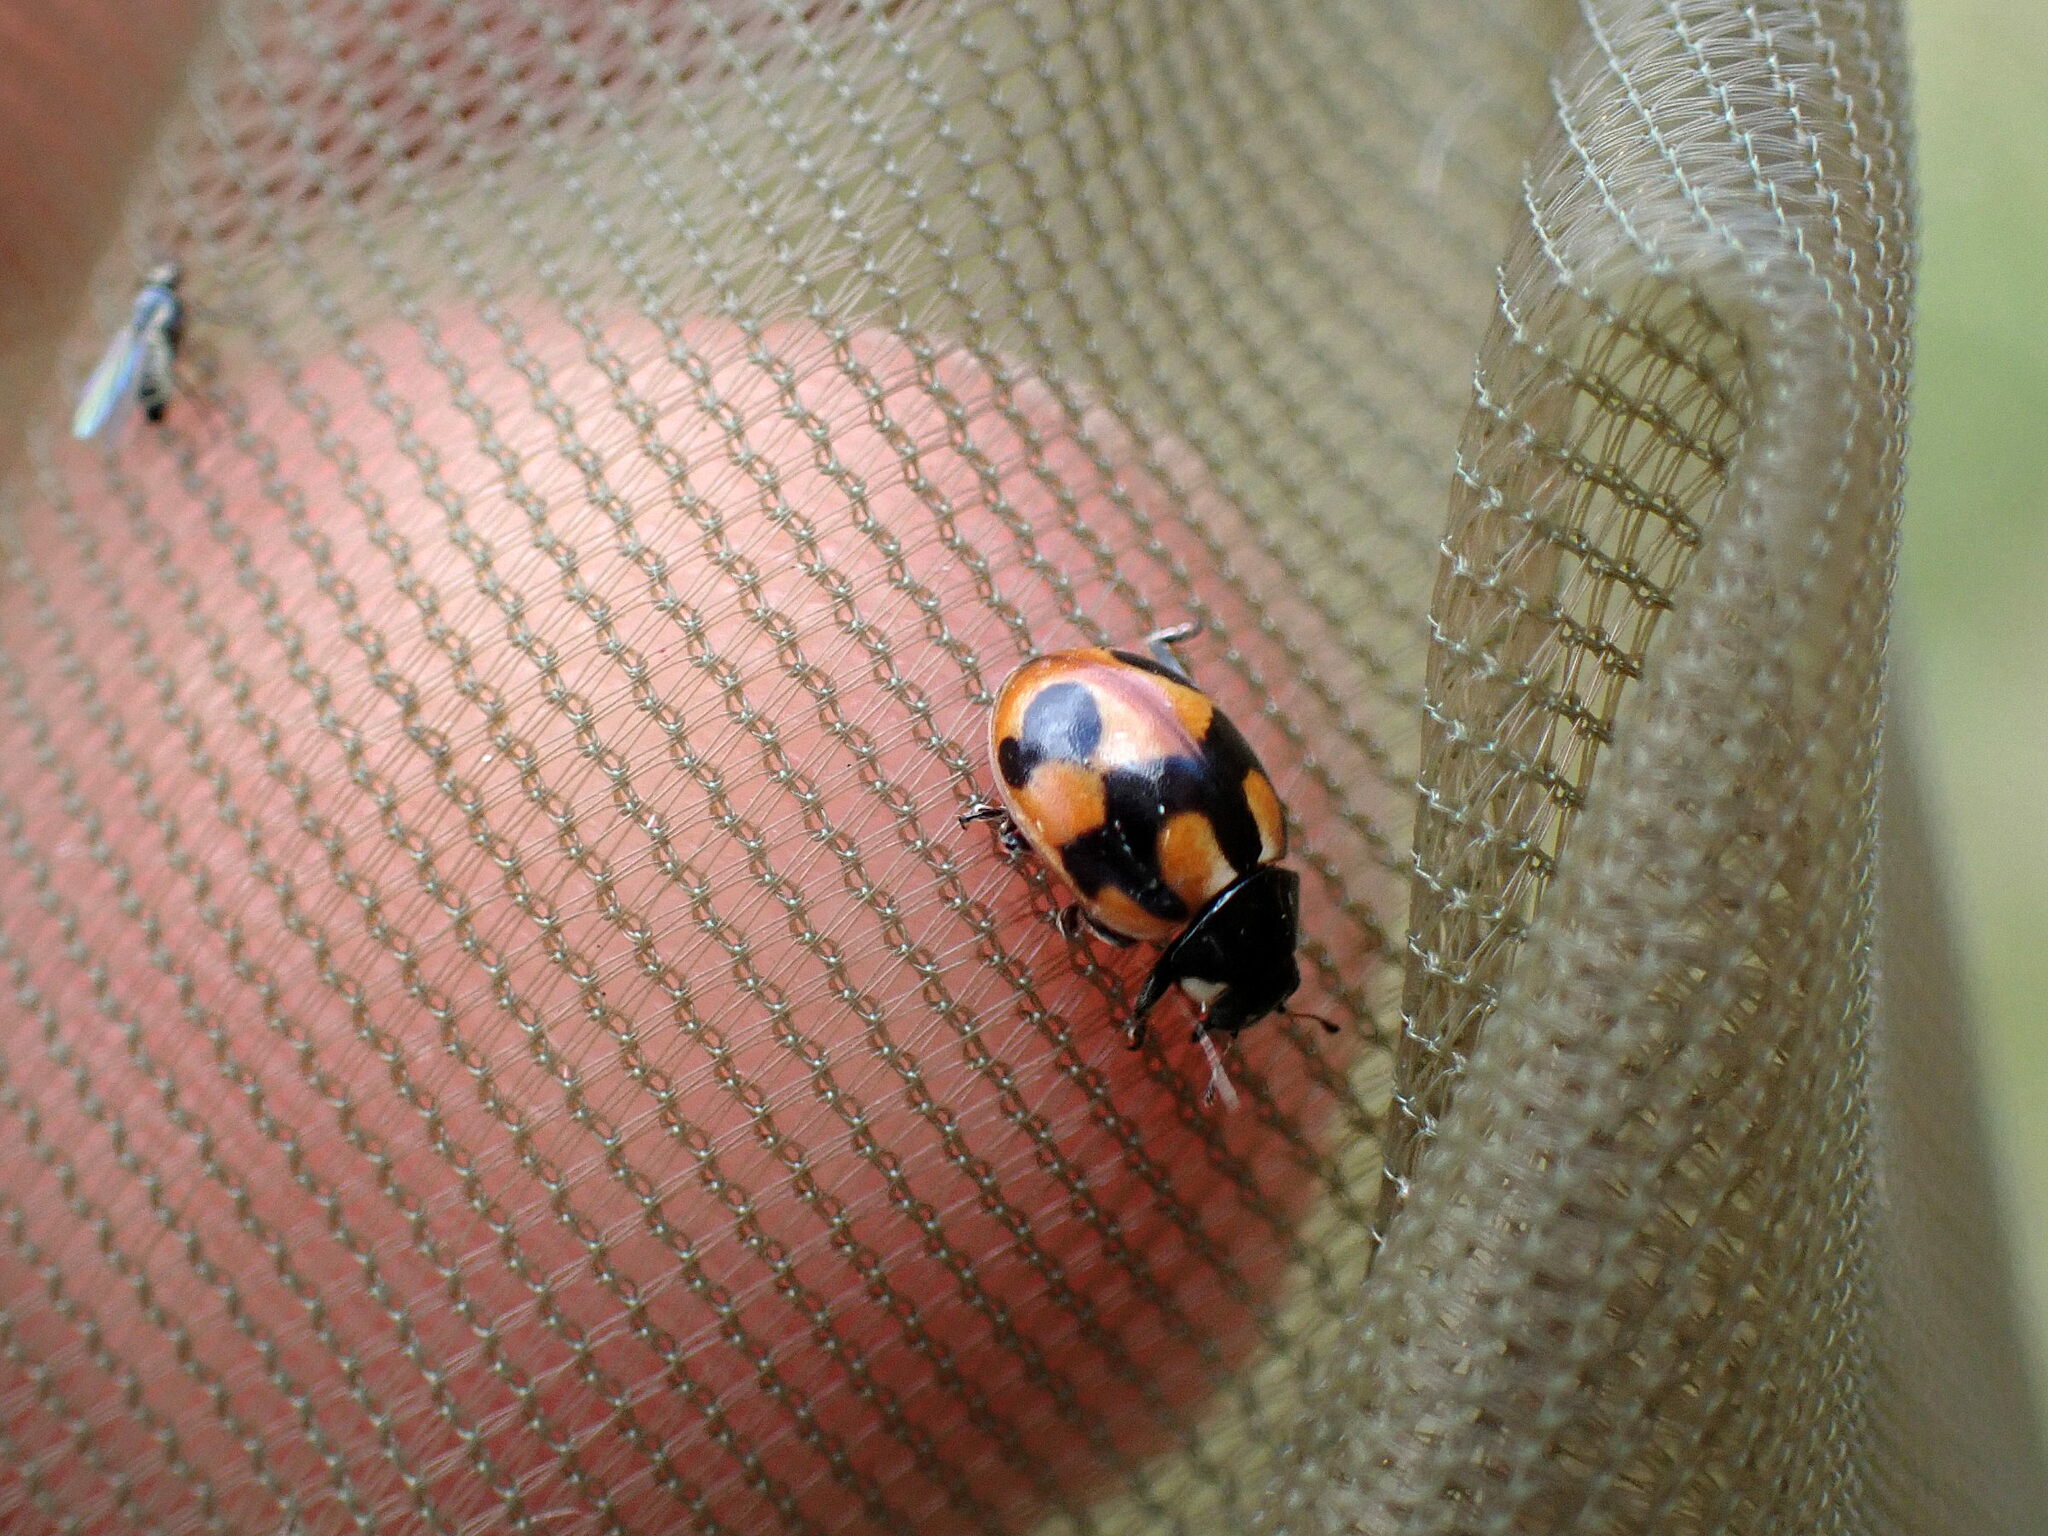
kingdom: Animalia
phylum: Arthropoda
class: Insecta
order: Coleoptera
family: Coccinellidae
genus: Coccinella
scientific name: Coccinella hieroglyphica
